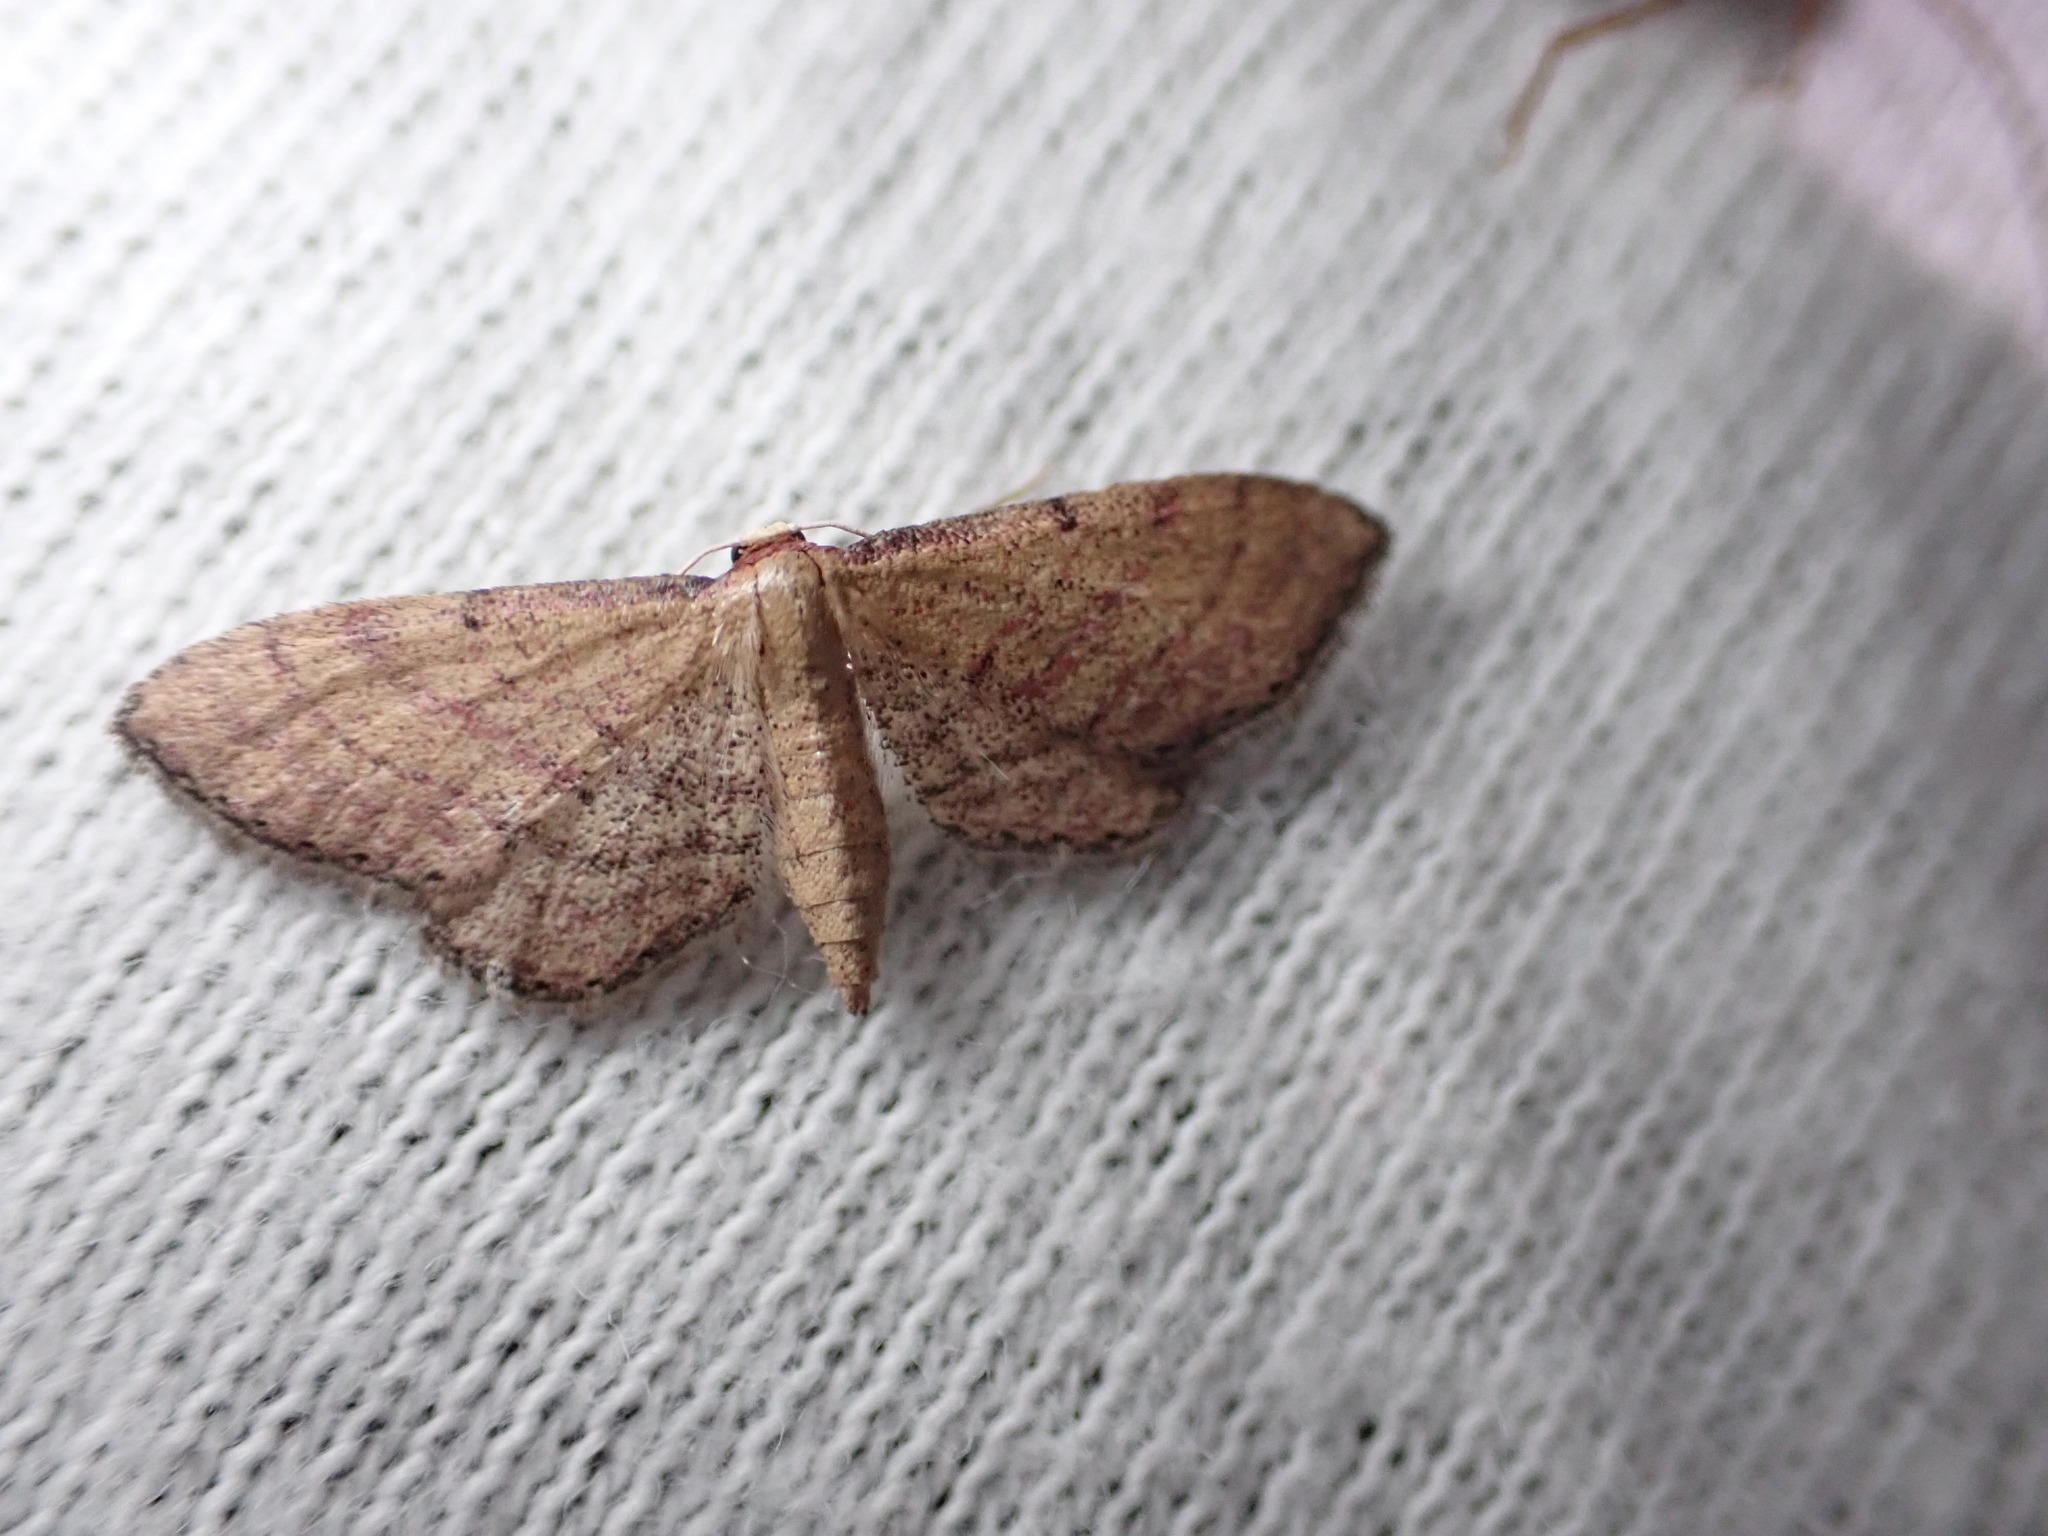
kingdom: Animalia
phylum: Arthropoda
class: Insecta
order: Lepidoptera
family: Geometridae
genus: Idaea
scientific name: Idaea infirmaria
